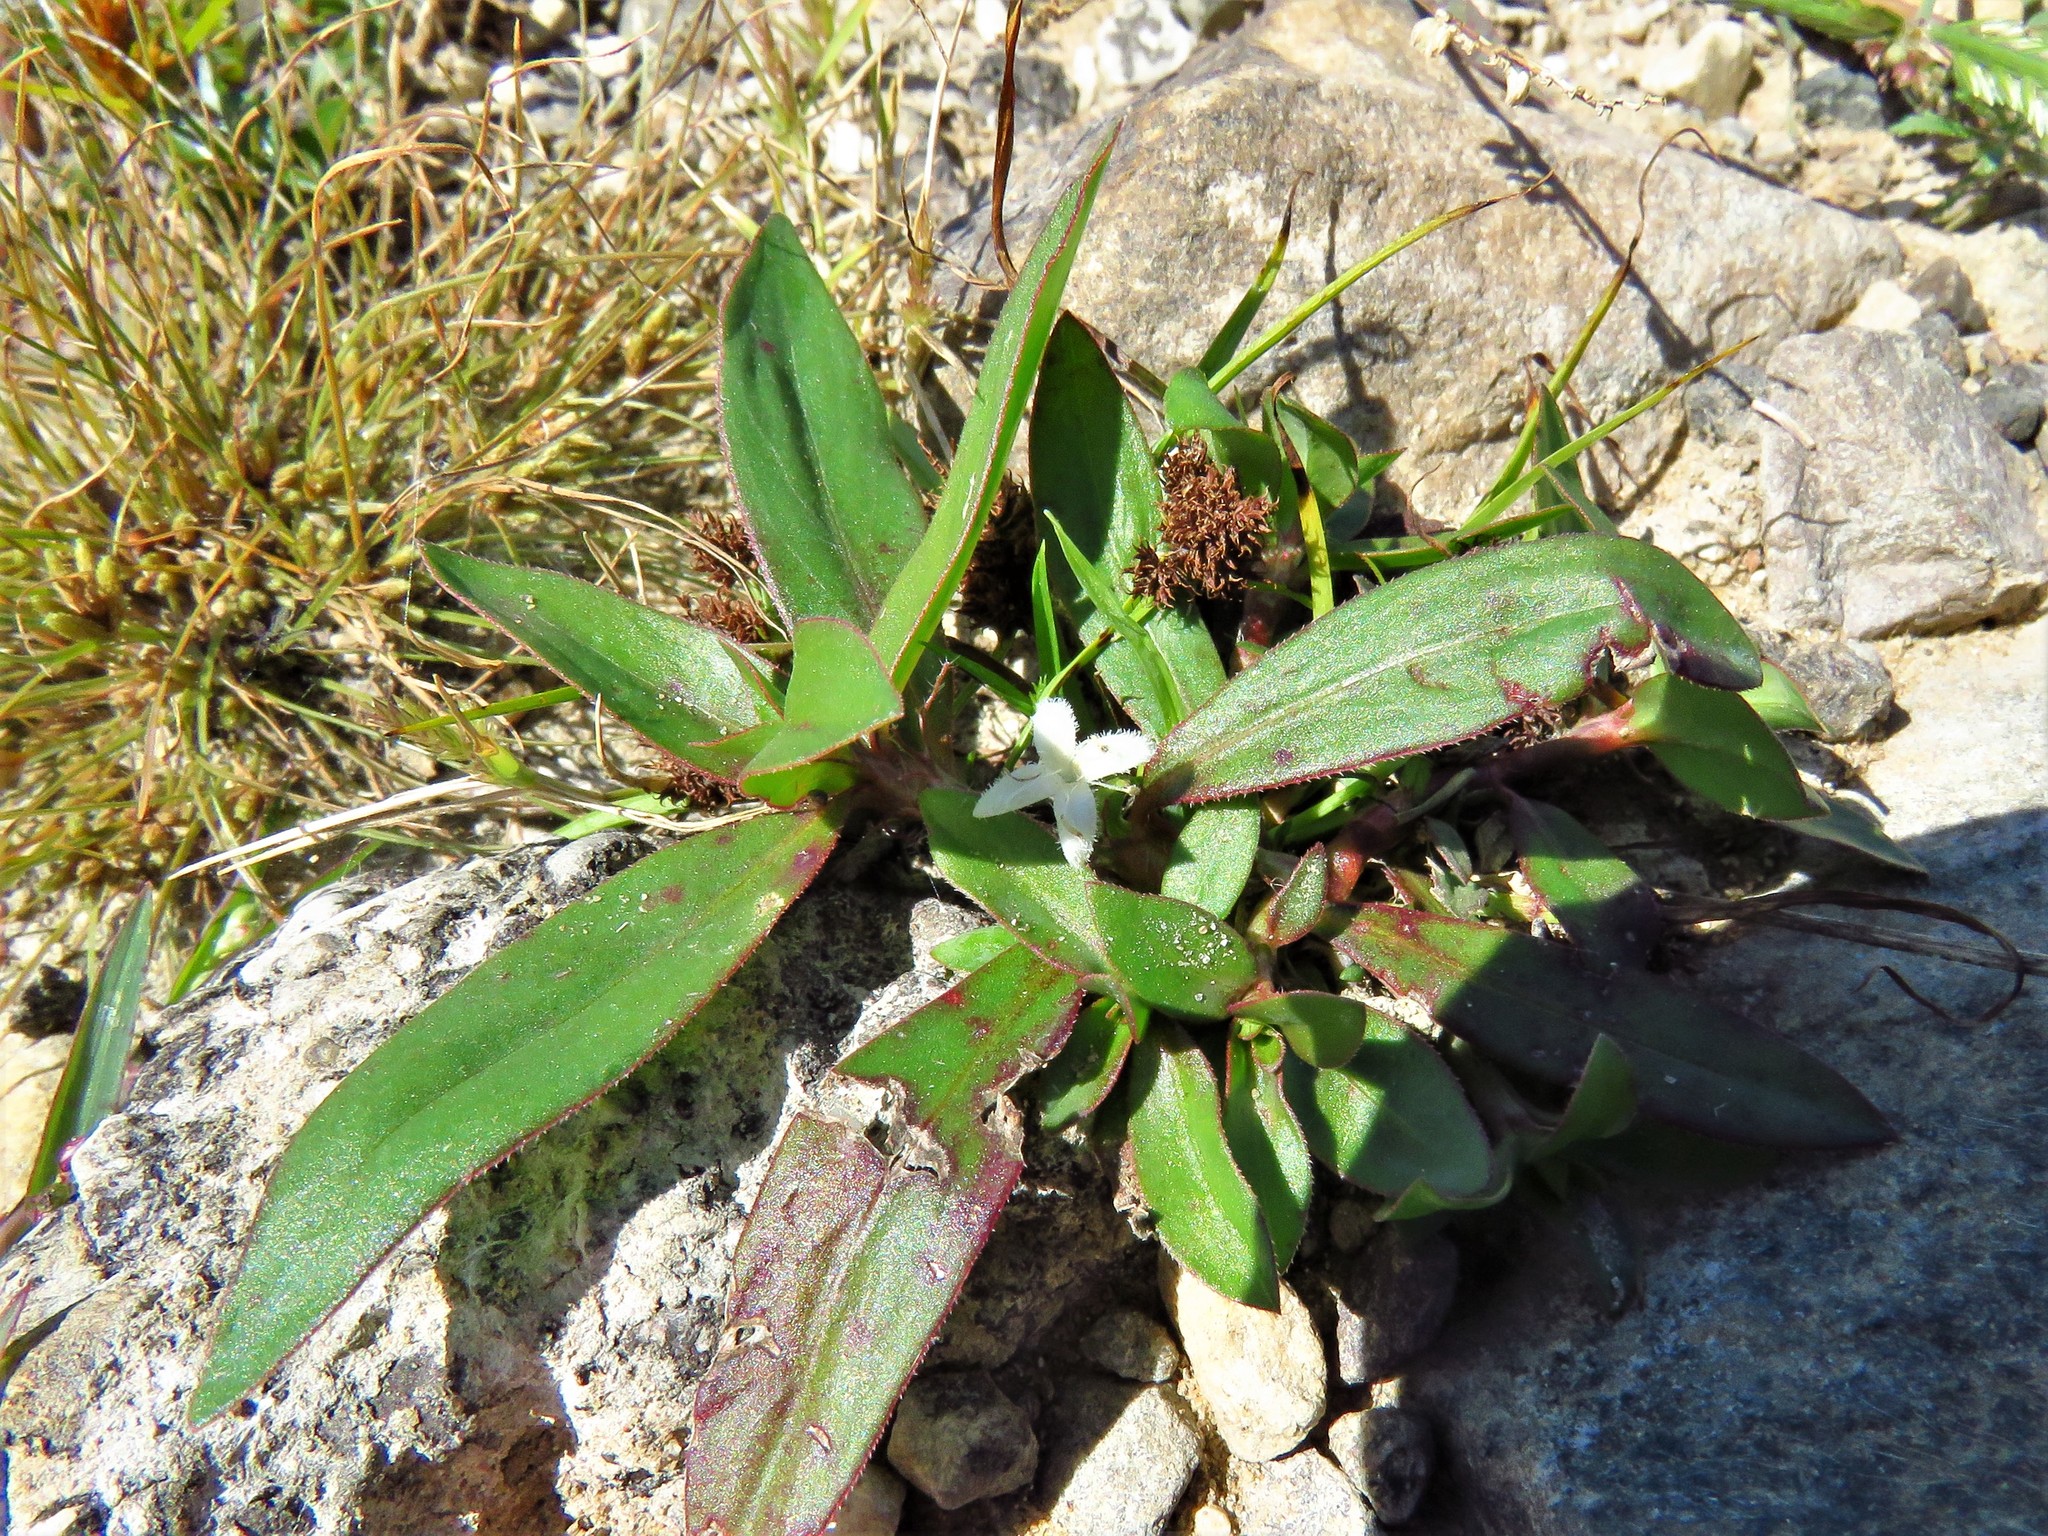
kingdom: Plantae
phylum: Tracheophyta
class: Magnoliopsida
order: Gentianales
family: Rubiaceae
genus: Diodia
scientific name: Diodia virginiana
